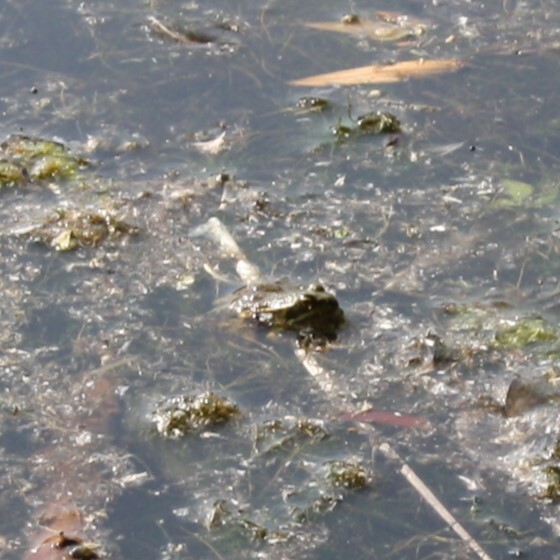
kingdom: Animalia
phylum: Chordata
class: Amphibia
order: Anura
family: Ranidae
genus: Pelophylax
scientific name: Pelophylax ridibundus
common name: Marsh frog
